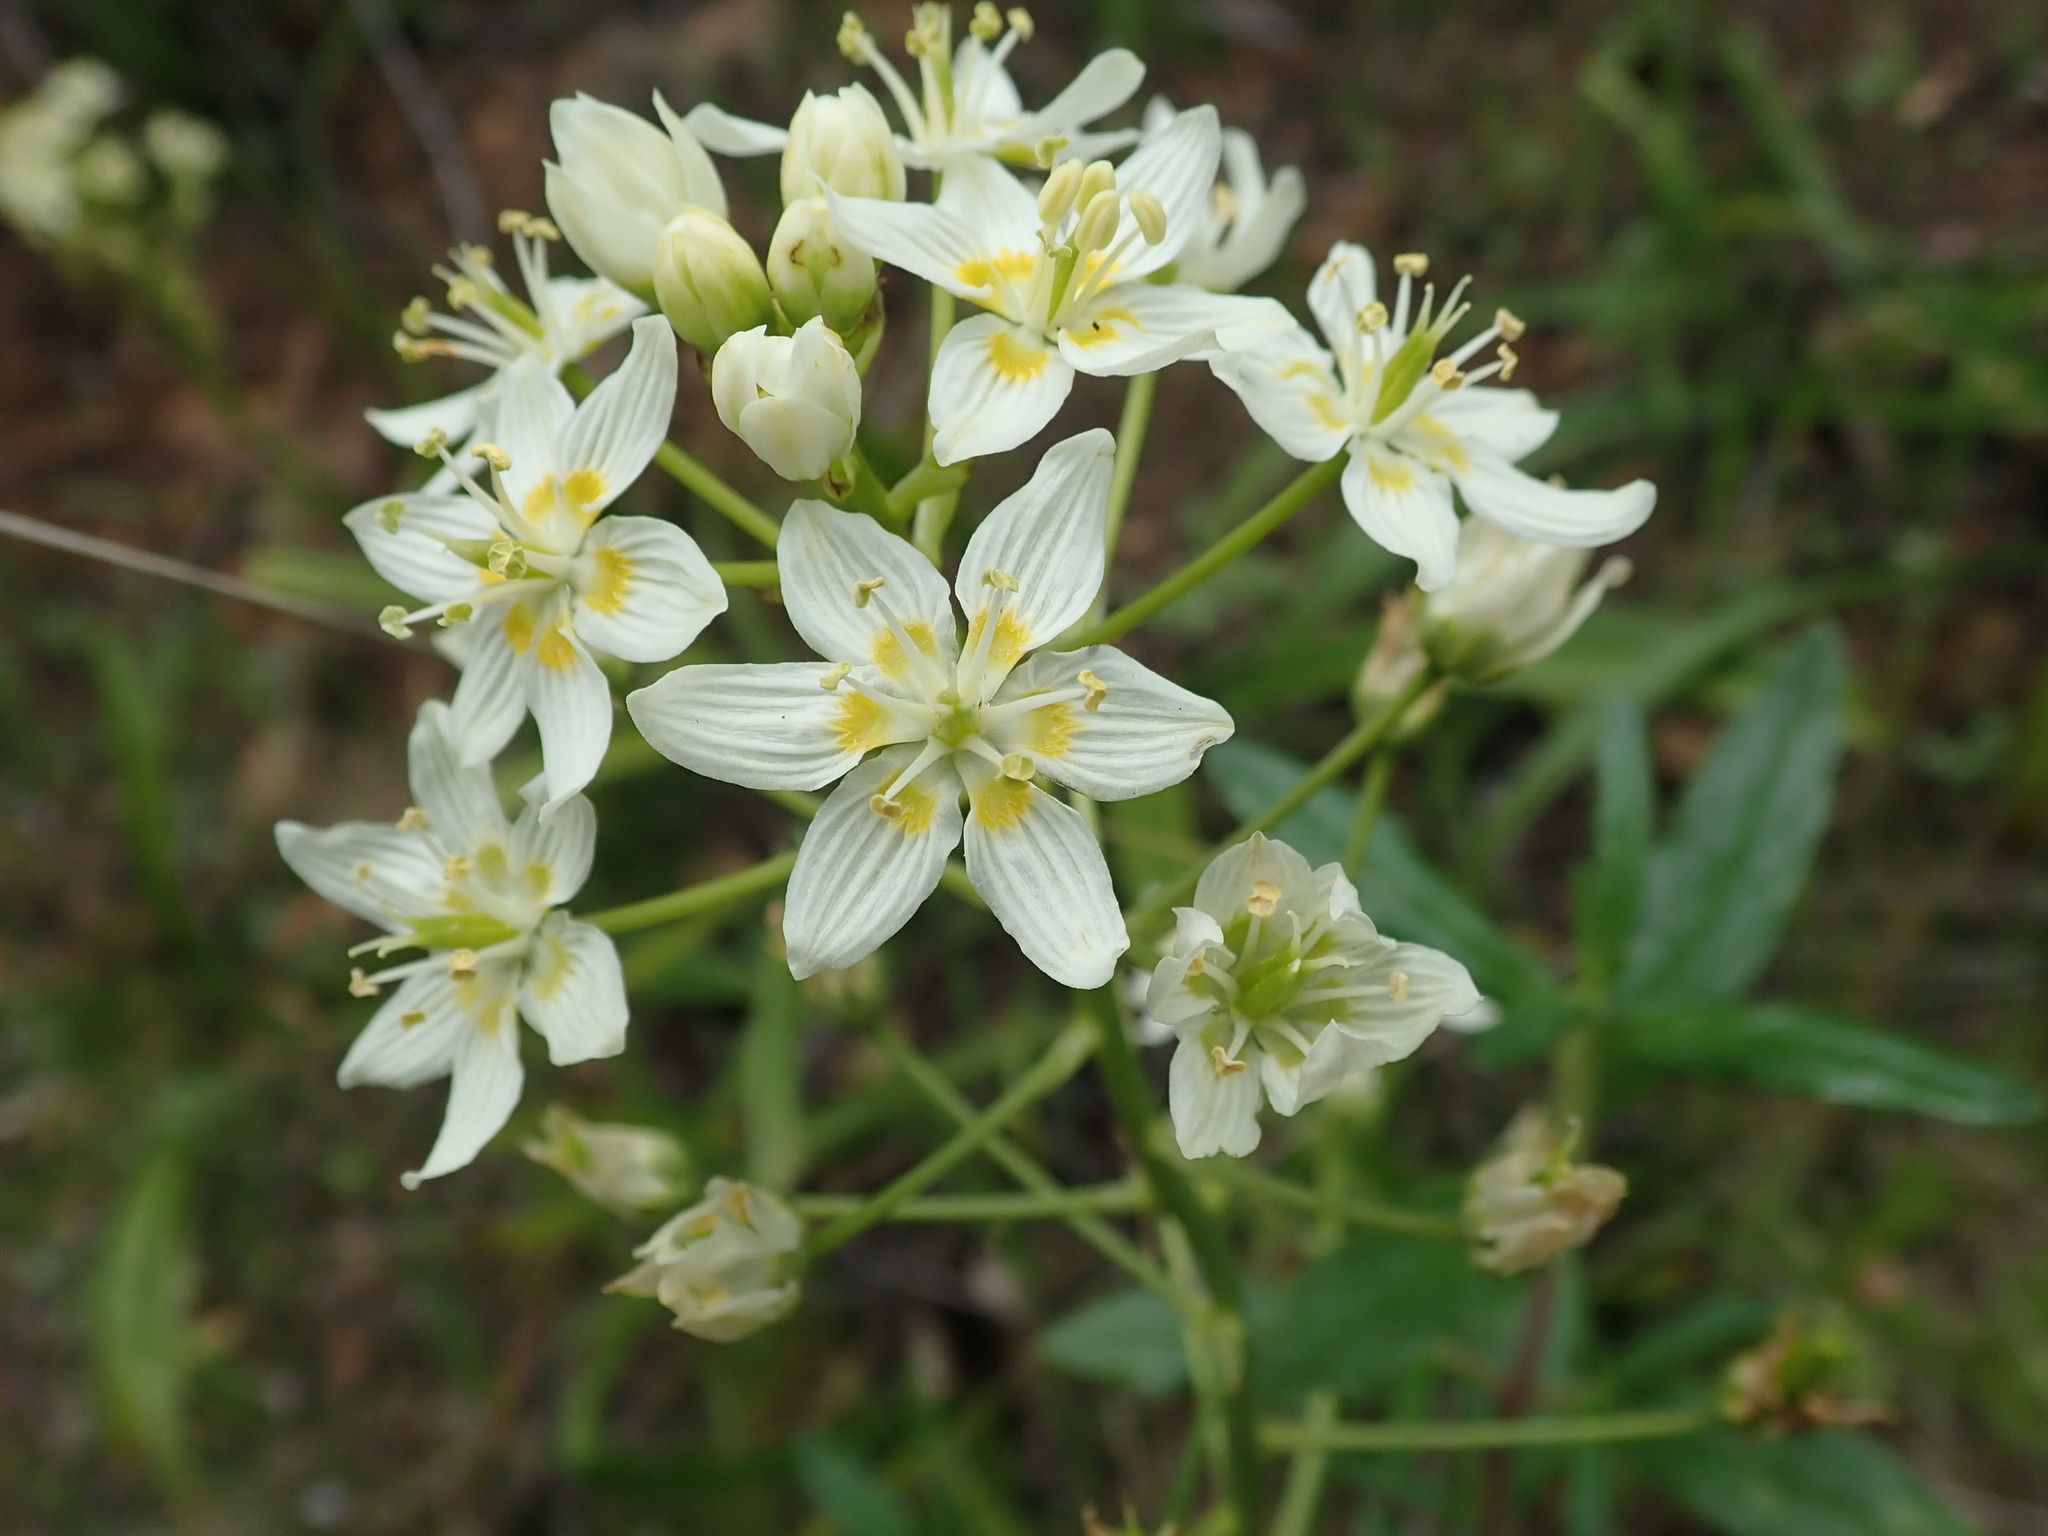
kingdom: Plantae
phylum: Tracheophyta
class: Liliopsida
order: Liliales
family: Melanthiaceae
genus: Toxicoscordion
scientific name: Toxicoscordion fremontii
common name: Fremont's death camas
